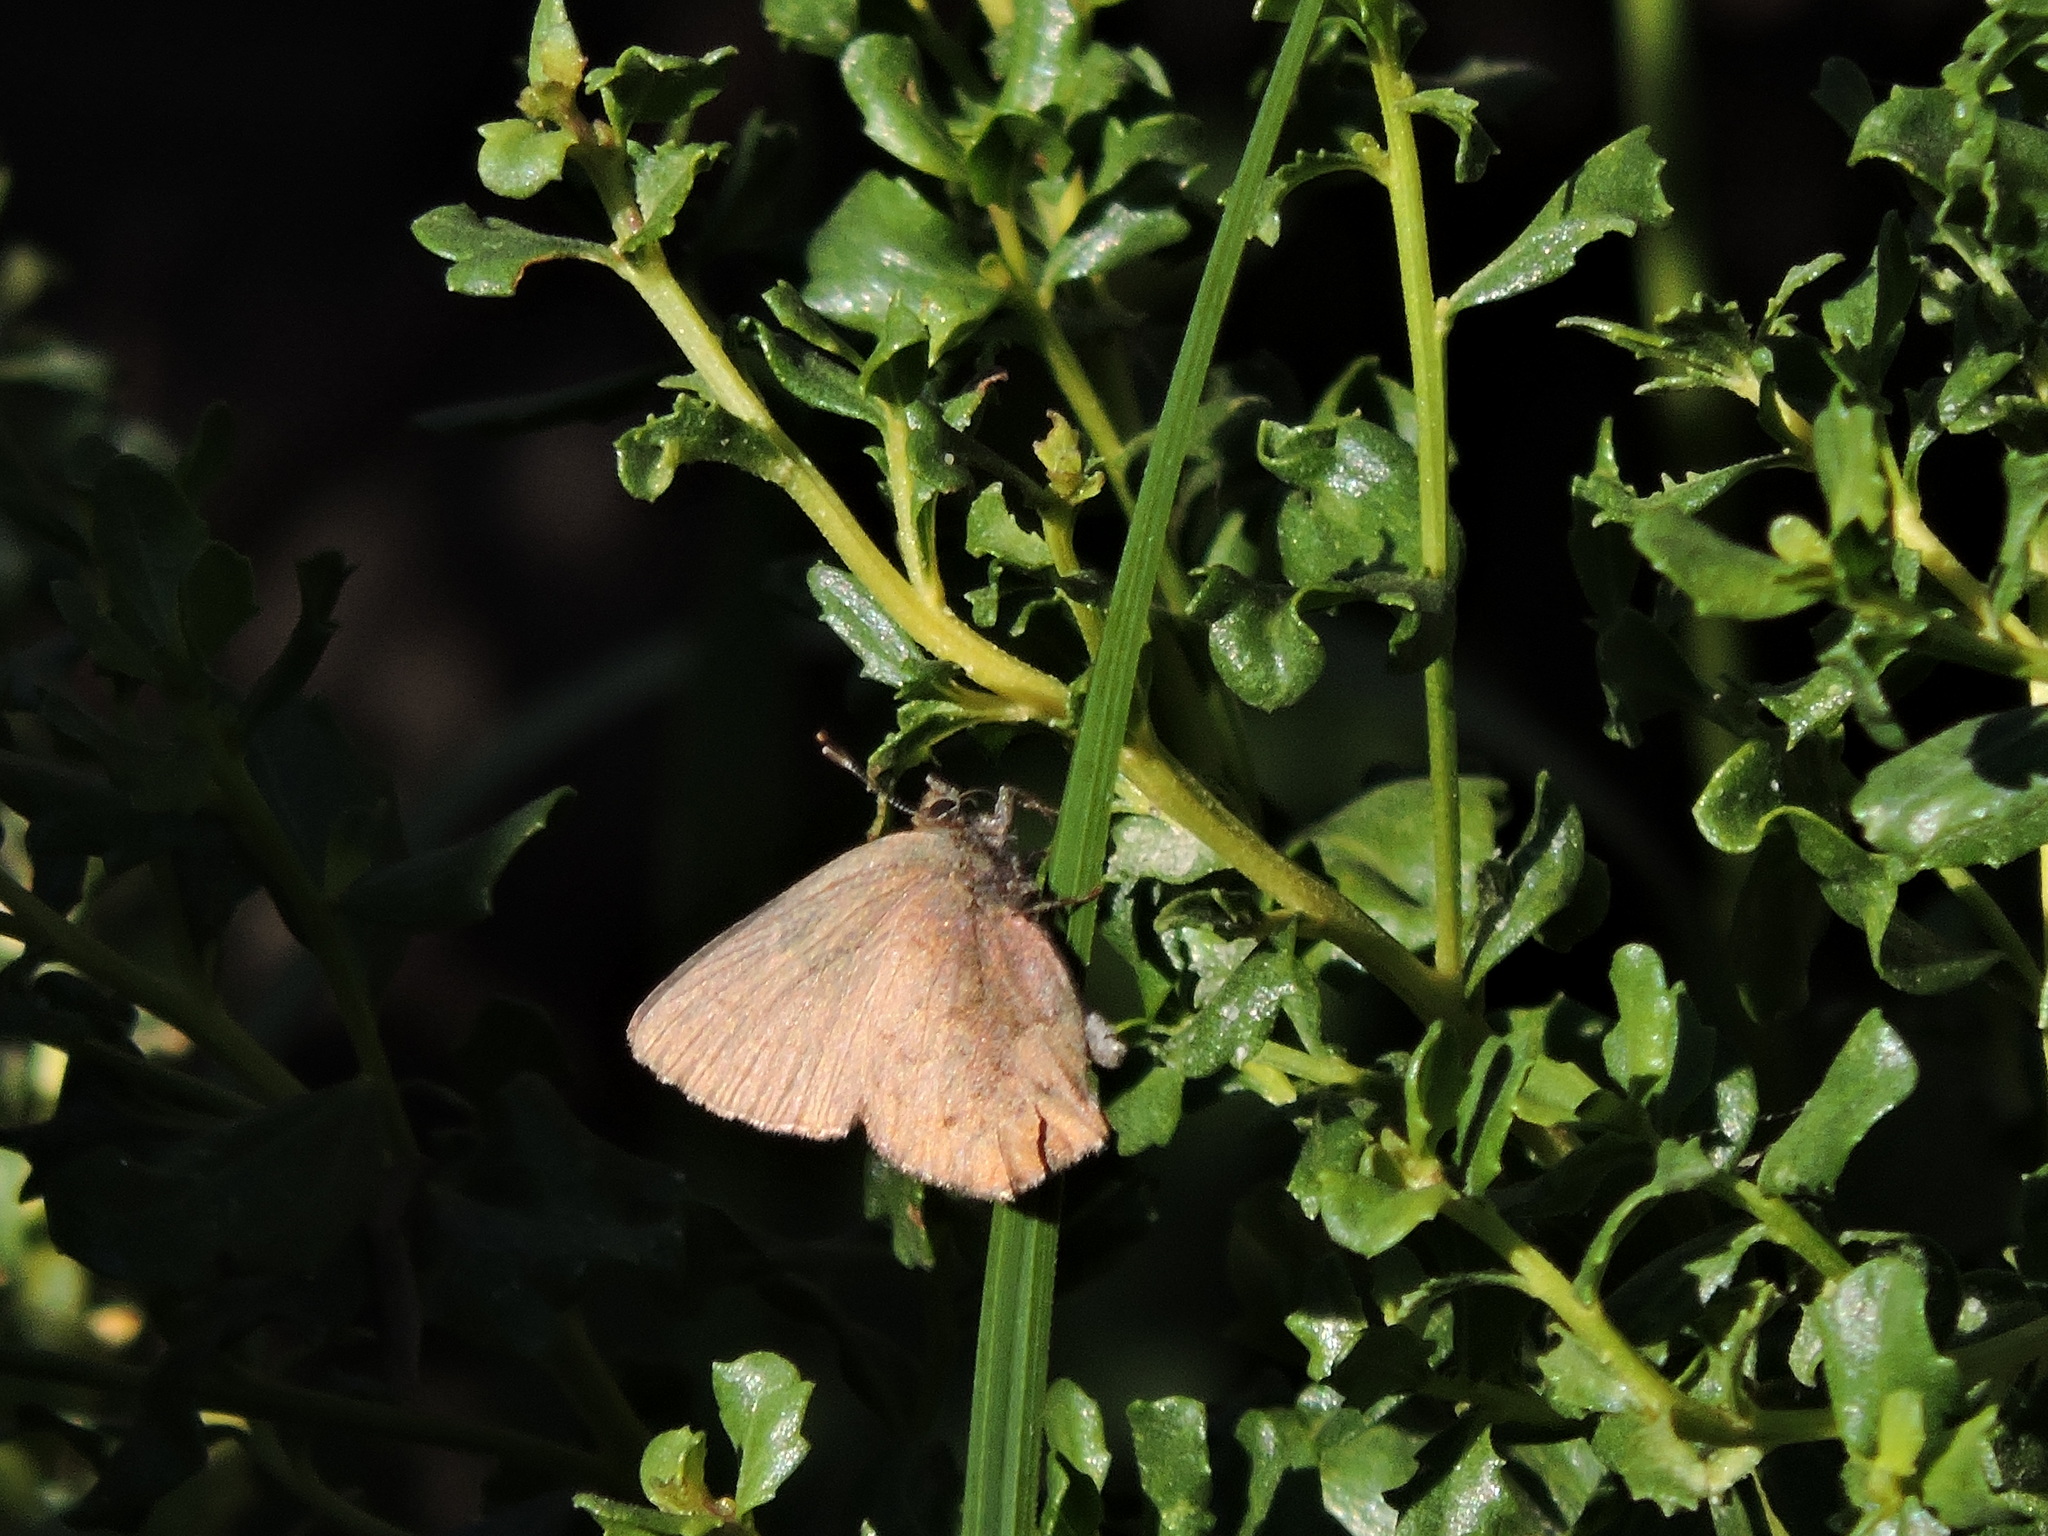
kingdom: Animalia
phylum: Arthropoda
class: Insecta
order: Lepidoptera
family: Lycaenidae
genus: Incisalia
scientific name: Incisalia irioides
